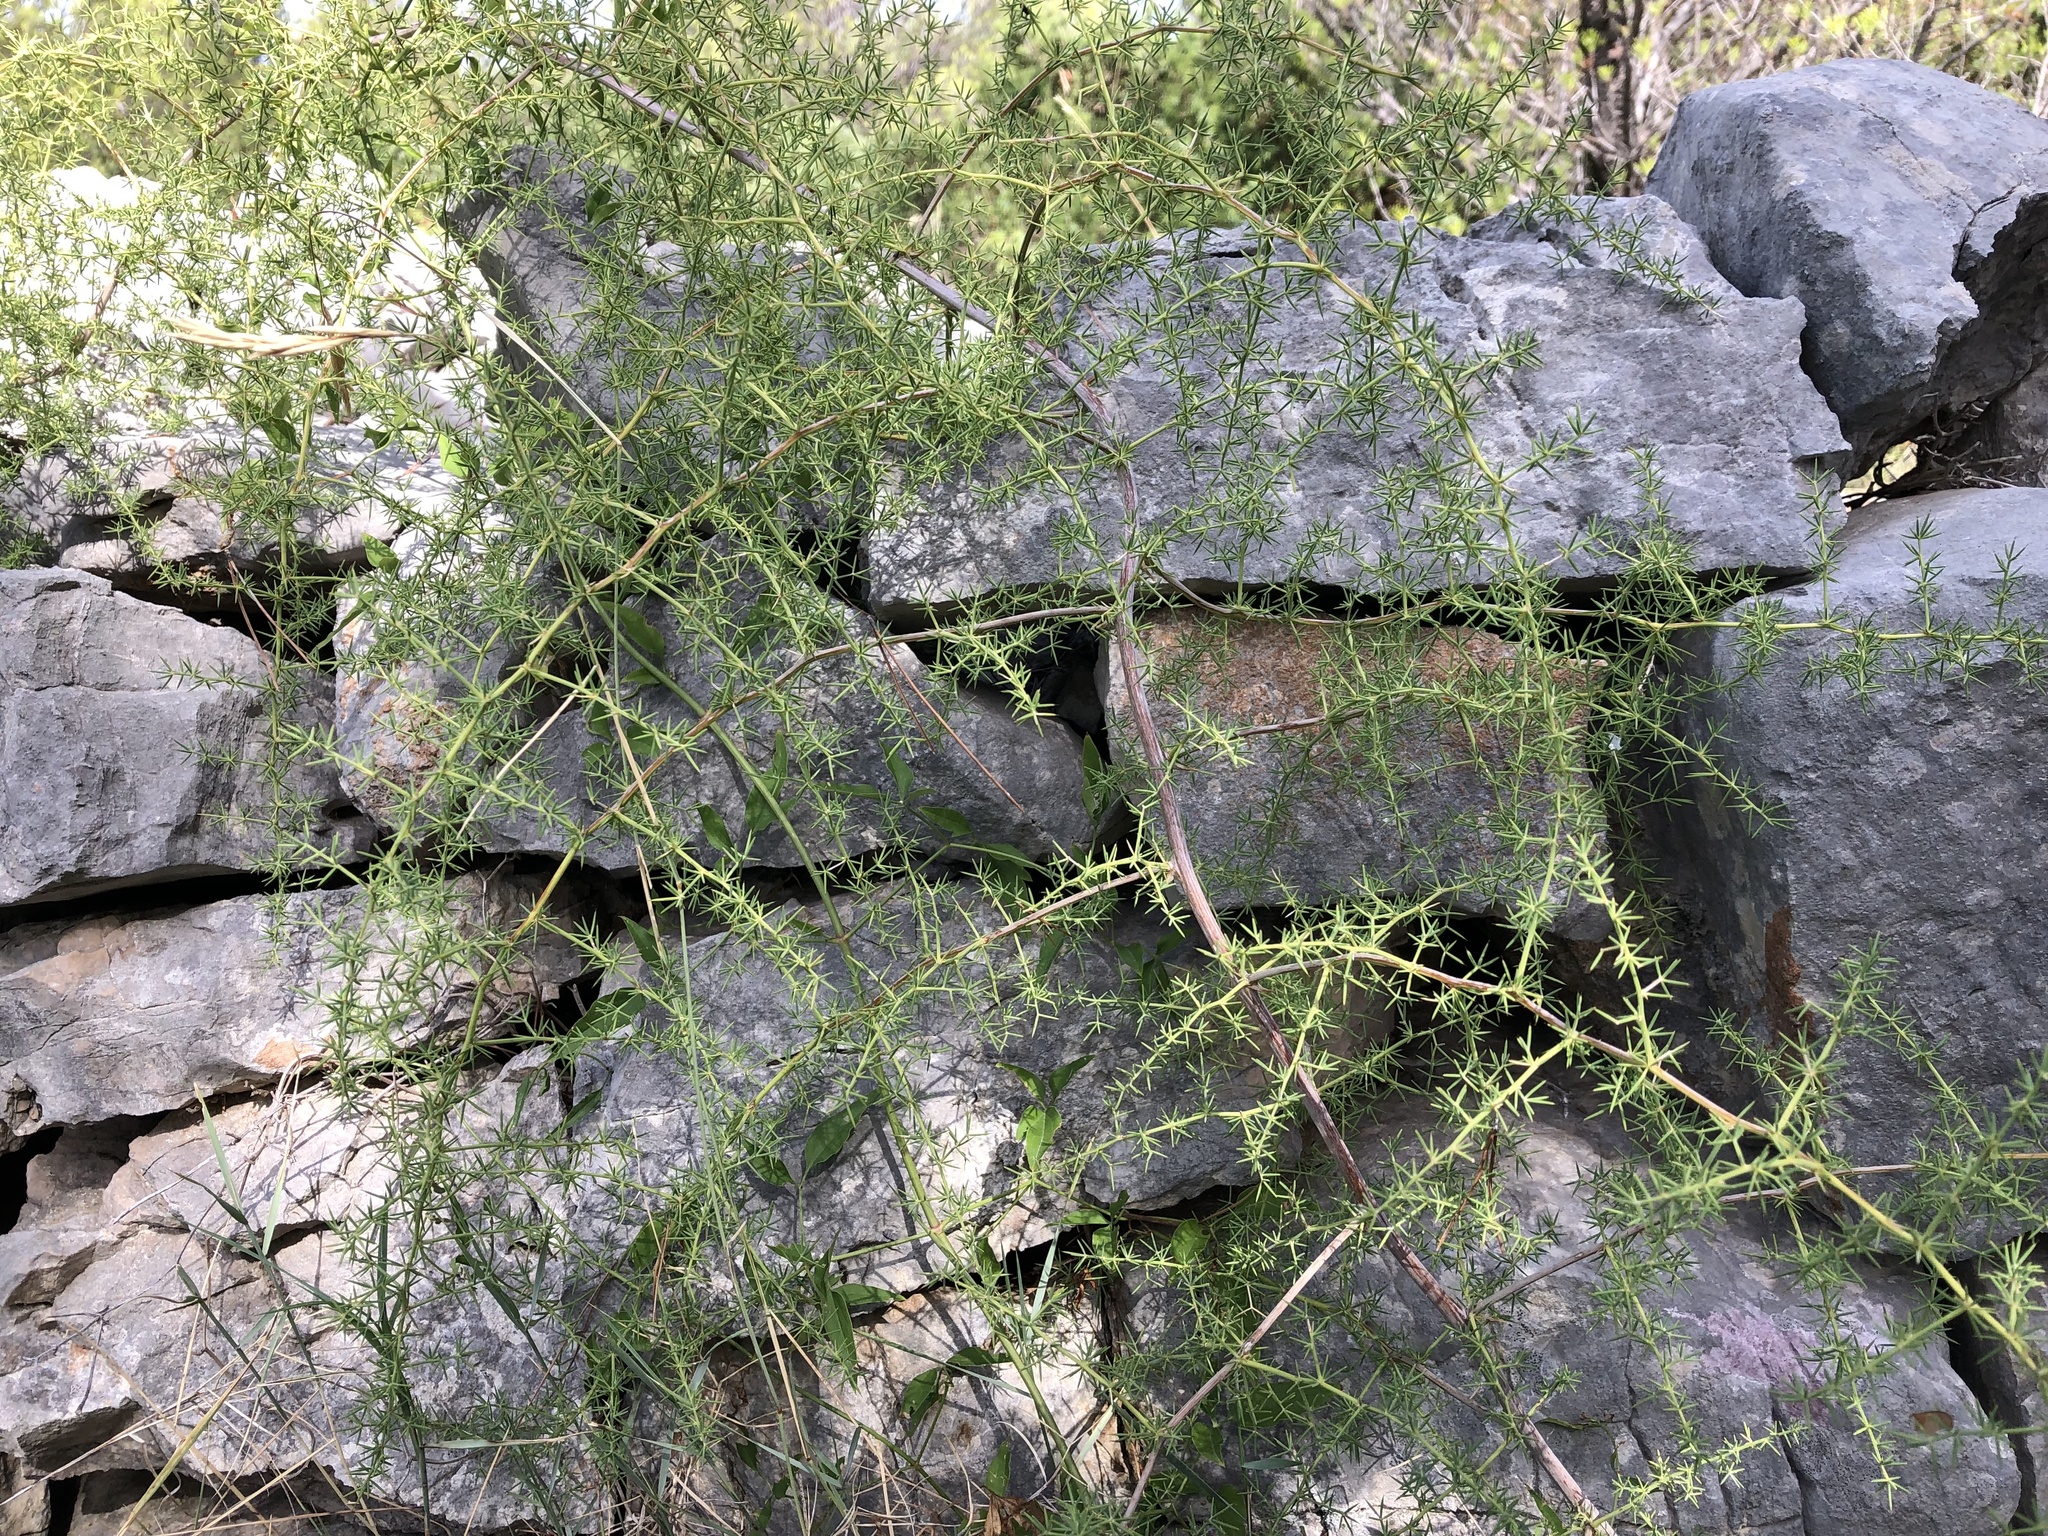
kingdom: Plantae
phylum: Tracheophyta
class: Liliopsida
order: Asparagales
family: Asparagaceae
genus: Asparagus
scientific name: Asparagus acutifolius
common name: Wild asparagus
